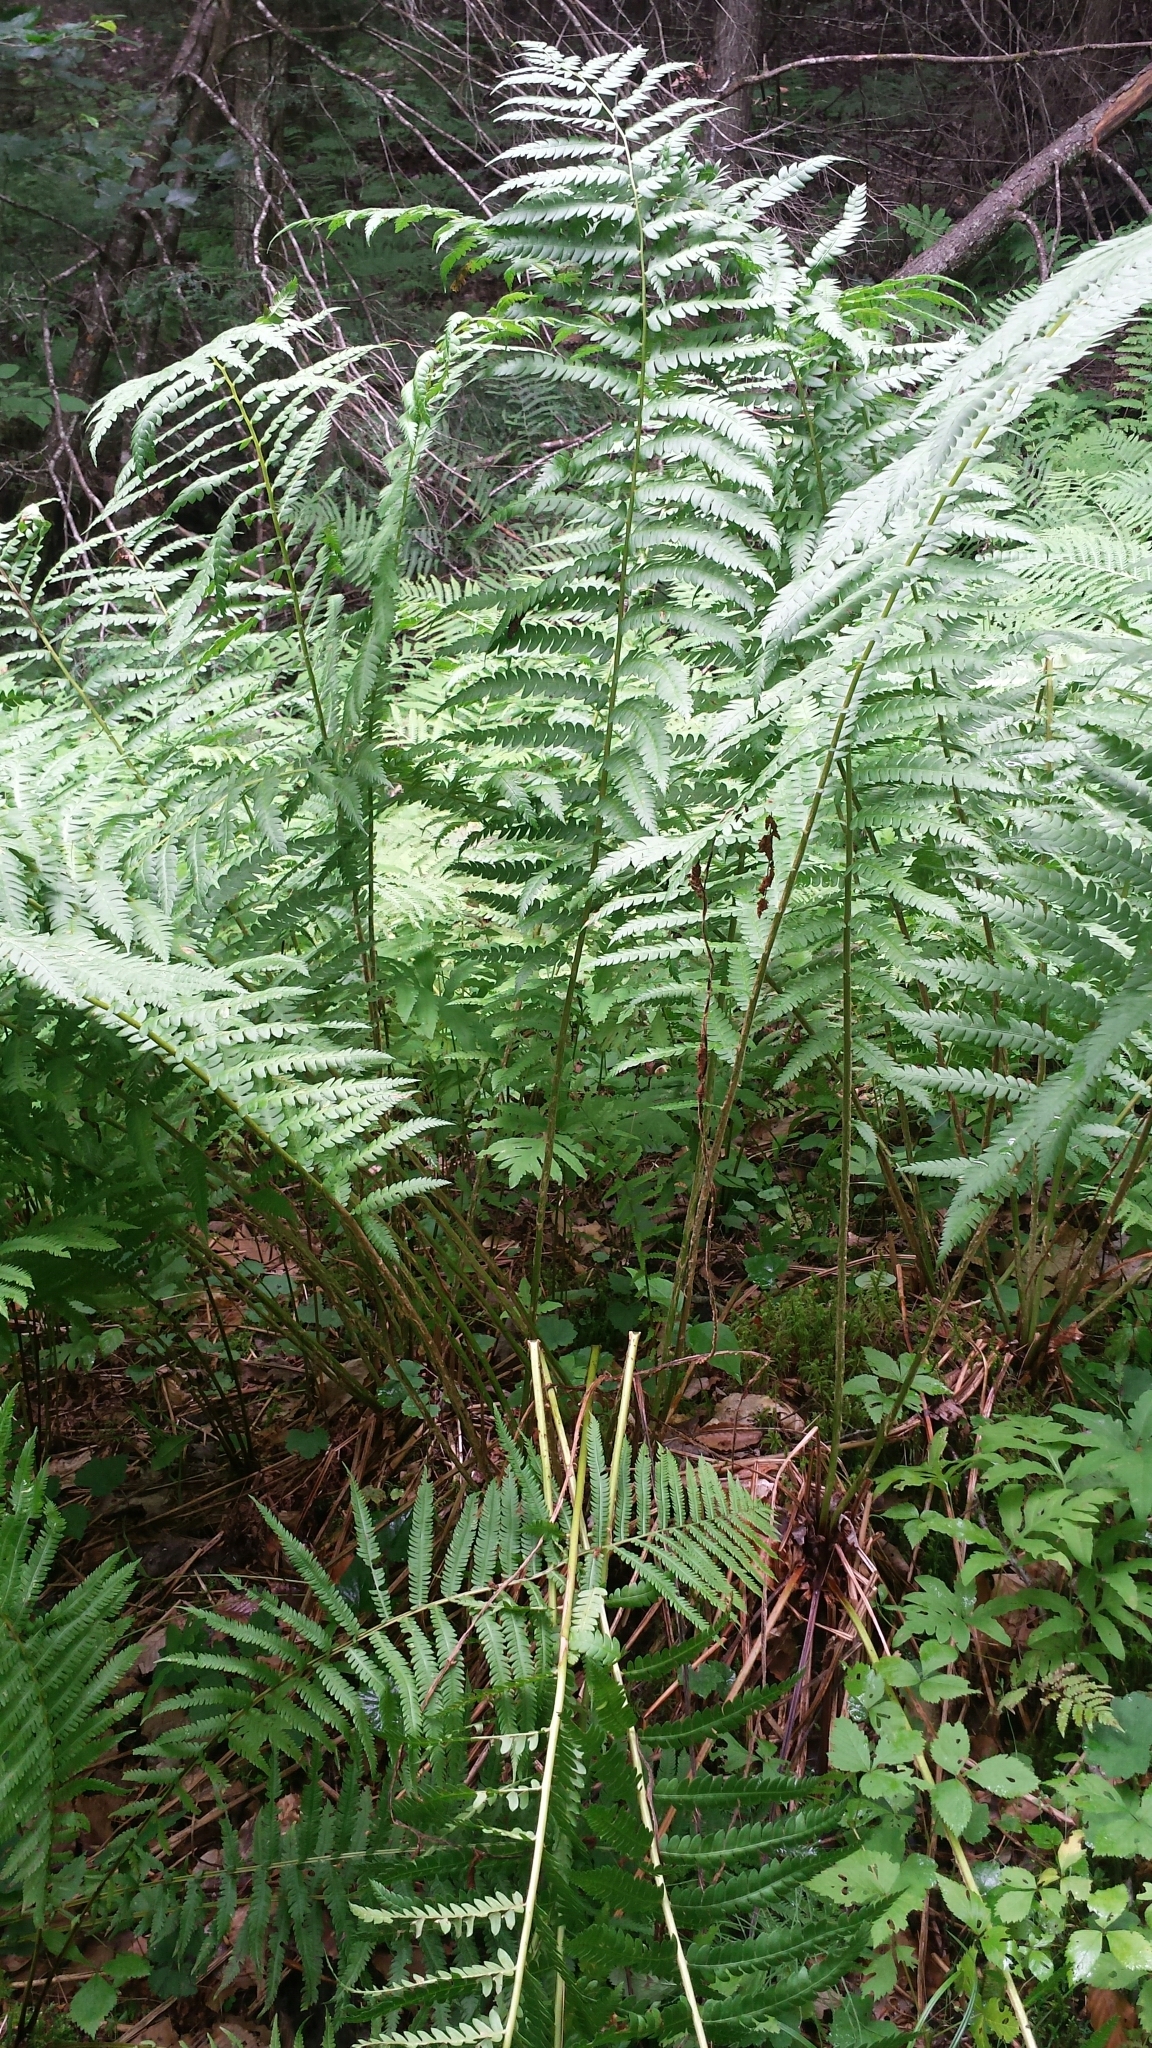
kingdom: Plantae
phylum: Tracheophyta
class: Polypodiopsida
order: Osmundales
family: Osmundaceae
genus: Osmundastrum
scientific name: Osmundastrum cinnamomeum
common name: Cinnamon fern
